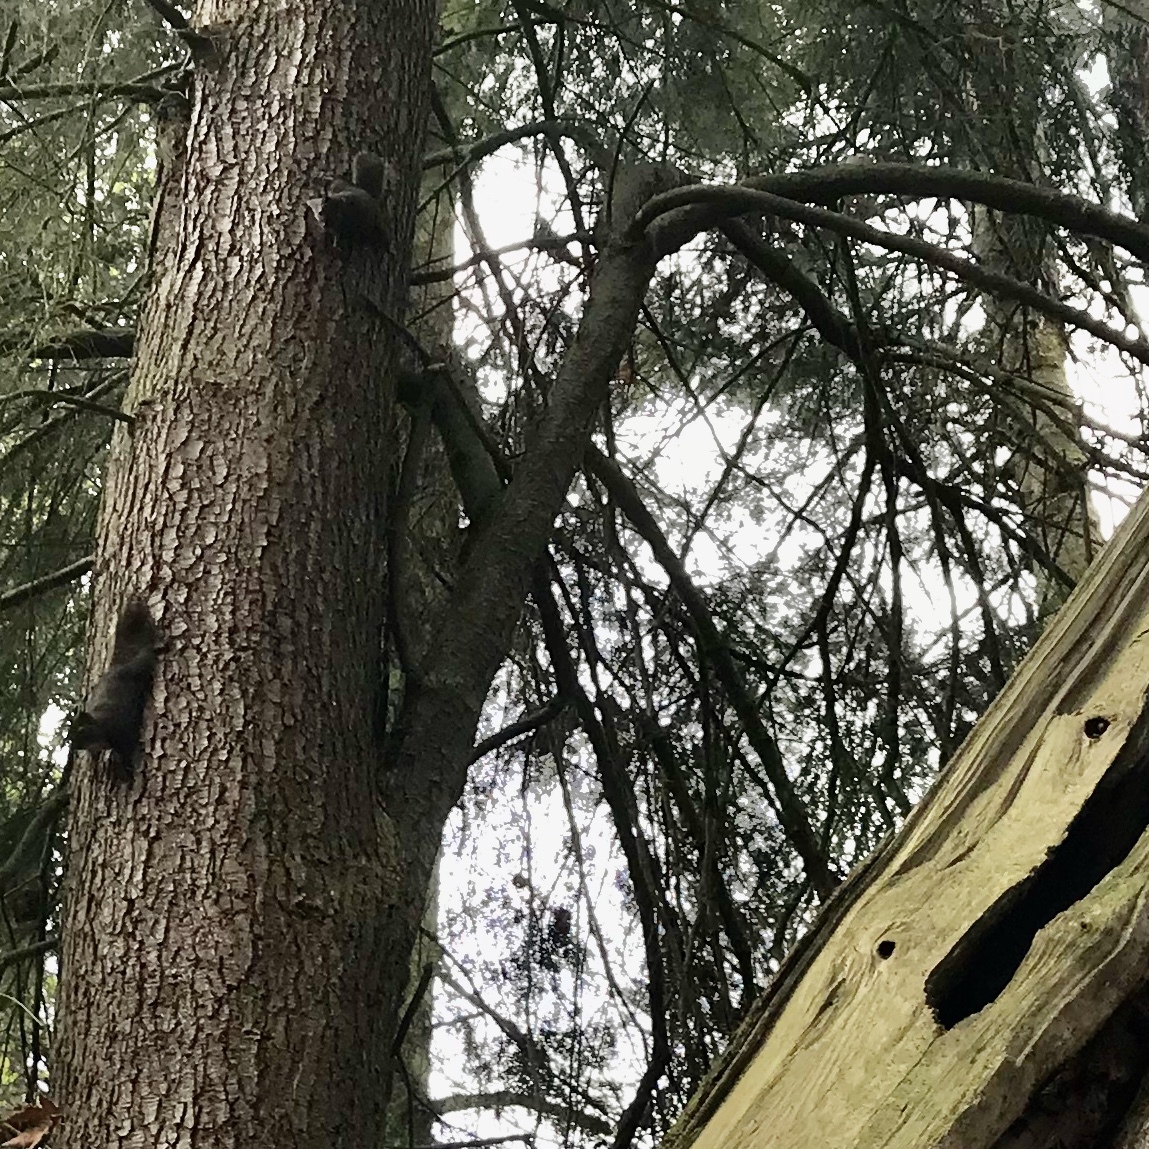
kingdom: Animalia
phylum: Chordata
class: Mammalia
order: Rodentia
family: Sciuridae
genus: Tamiasciurus
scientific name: Tamiasciurus douglasii
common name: Douglas's squirrel
